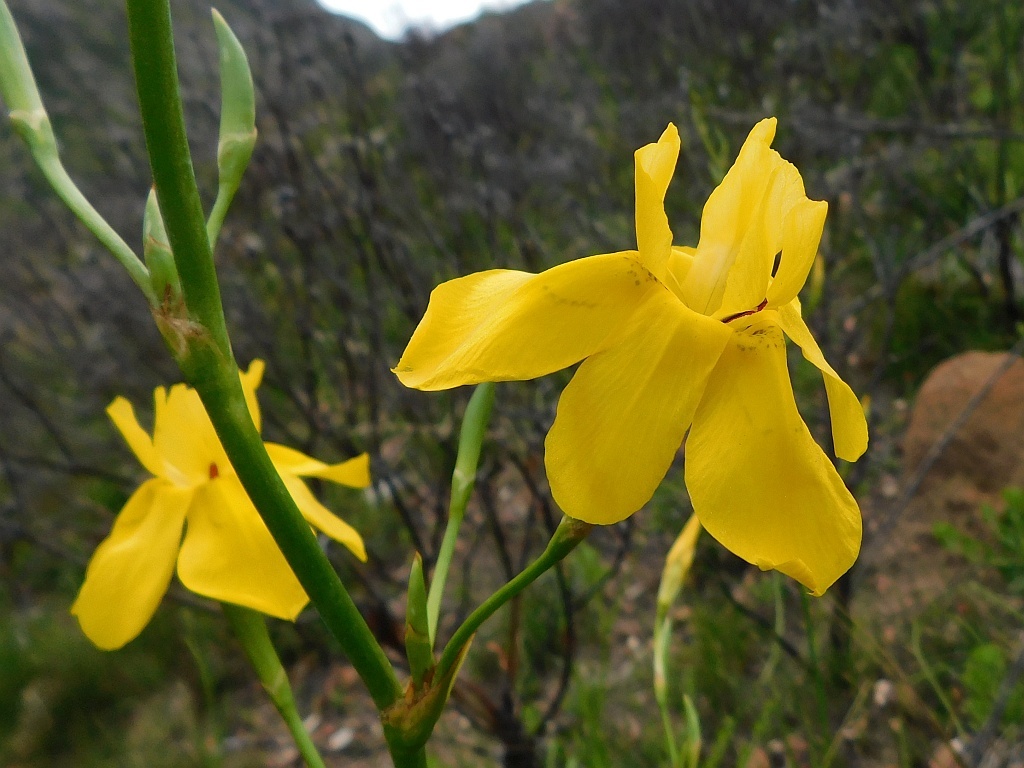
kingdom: Plantae
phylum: Tracheophyta
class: Liliopsida
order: Asparagales
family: Iridaceae
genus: Moraea
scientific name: Moraea ramosissima
